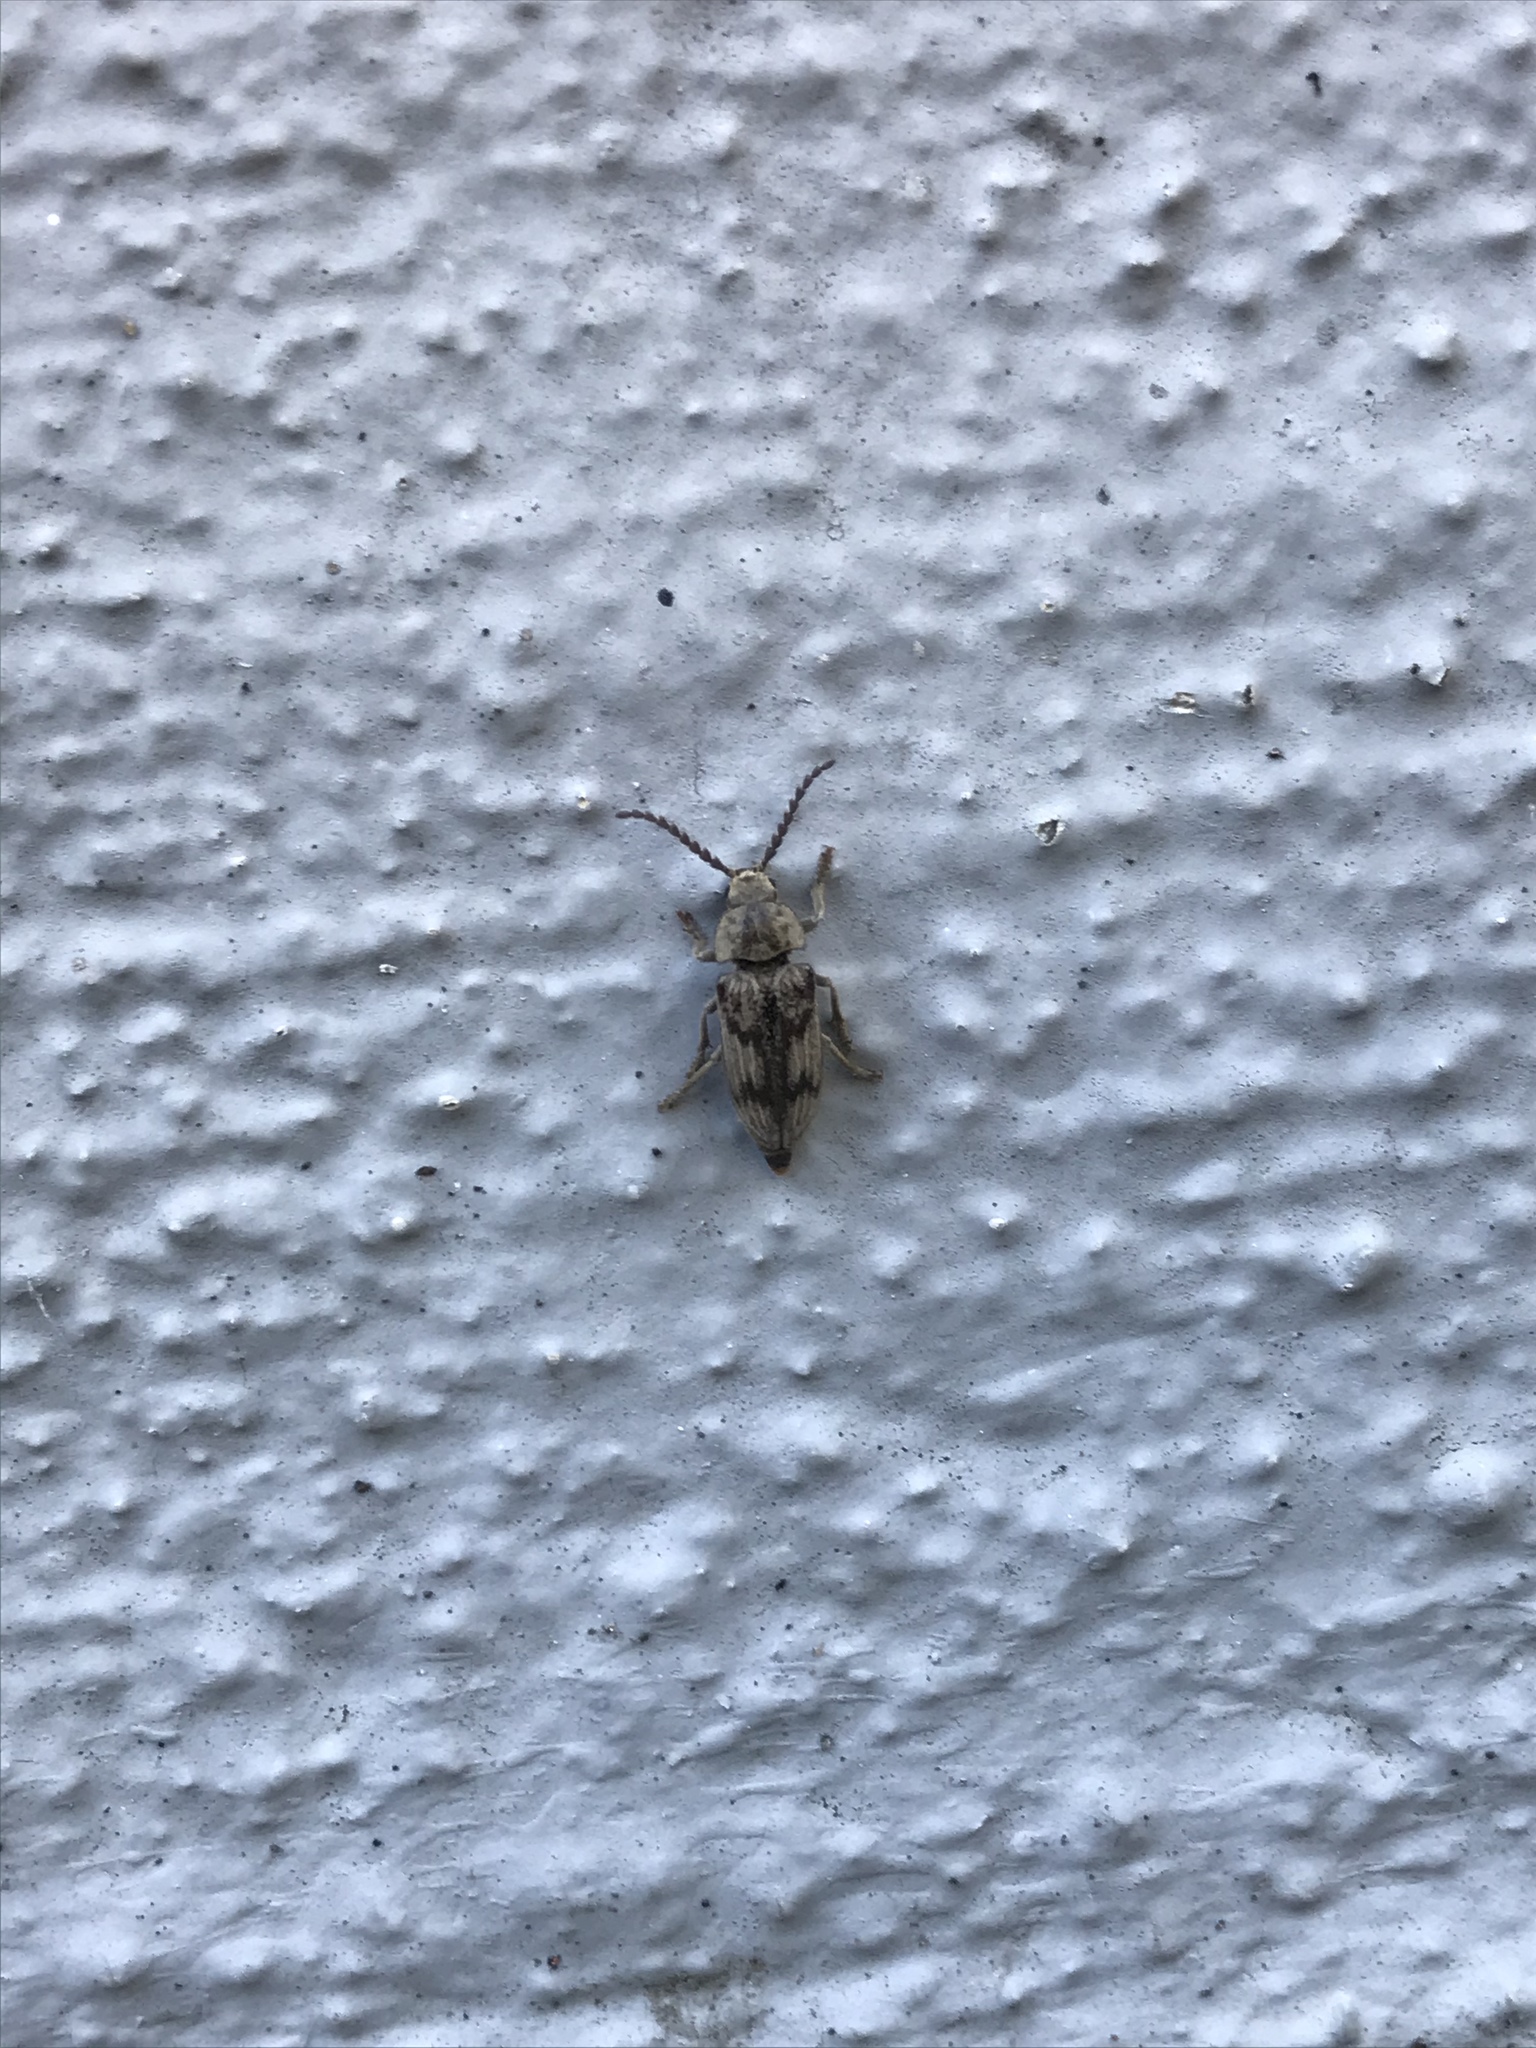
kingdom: Animalia
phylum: Arthropoda
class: Insecta
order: Coleoptera
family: Dascillidae
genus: Dascillus
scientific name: Dascillus davidsoni
